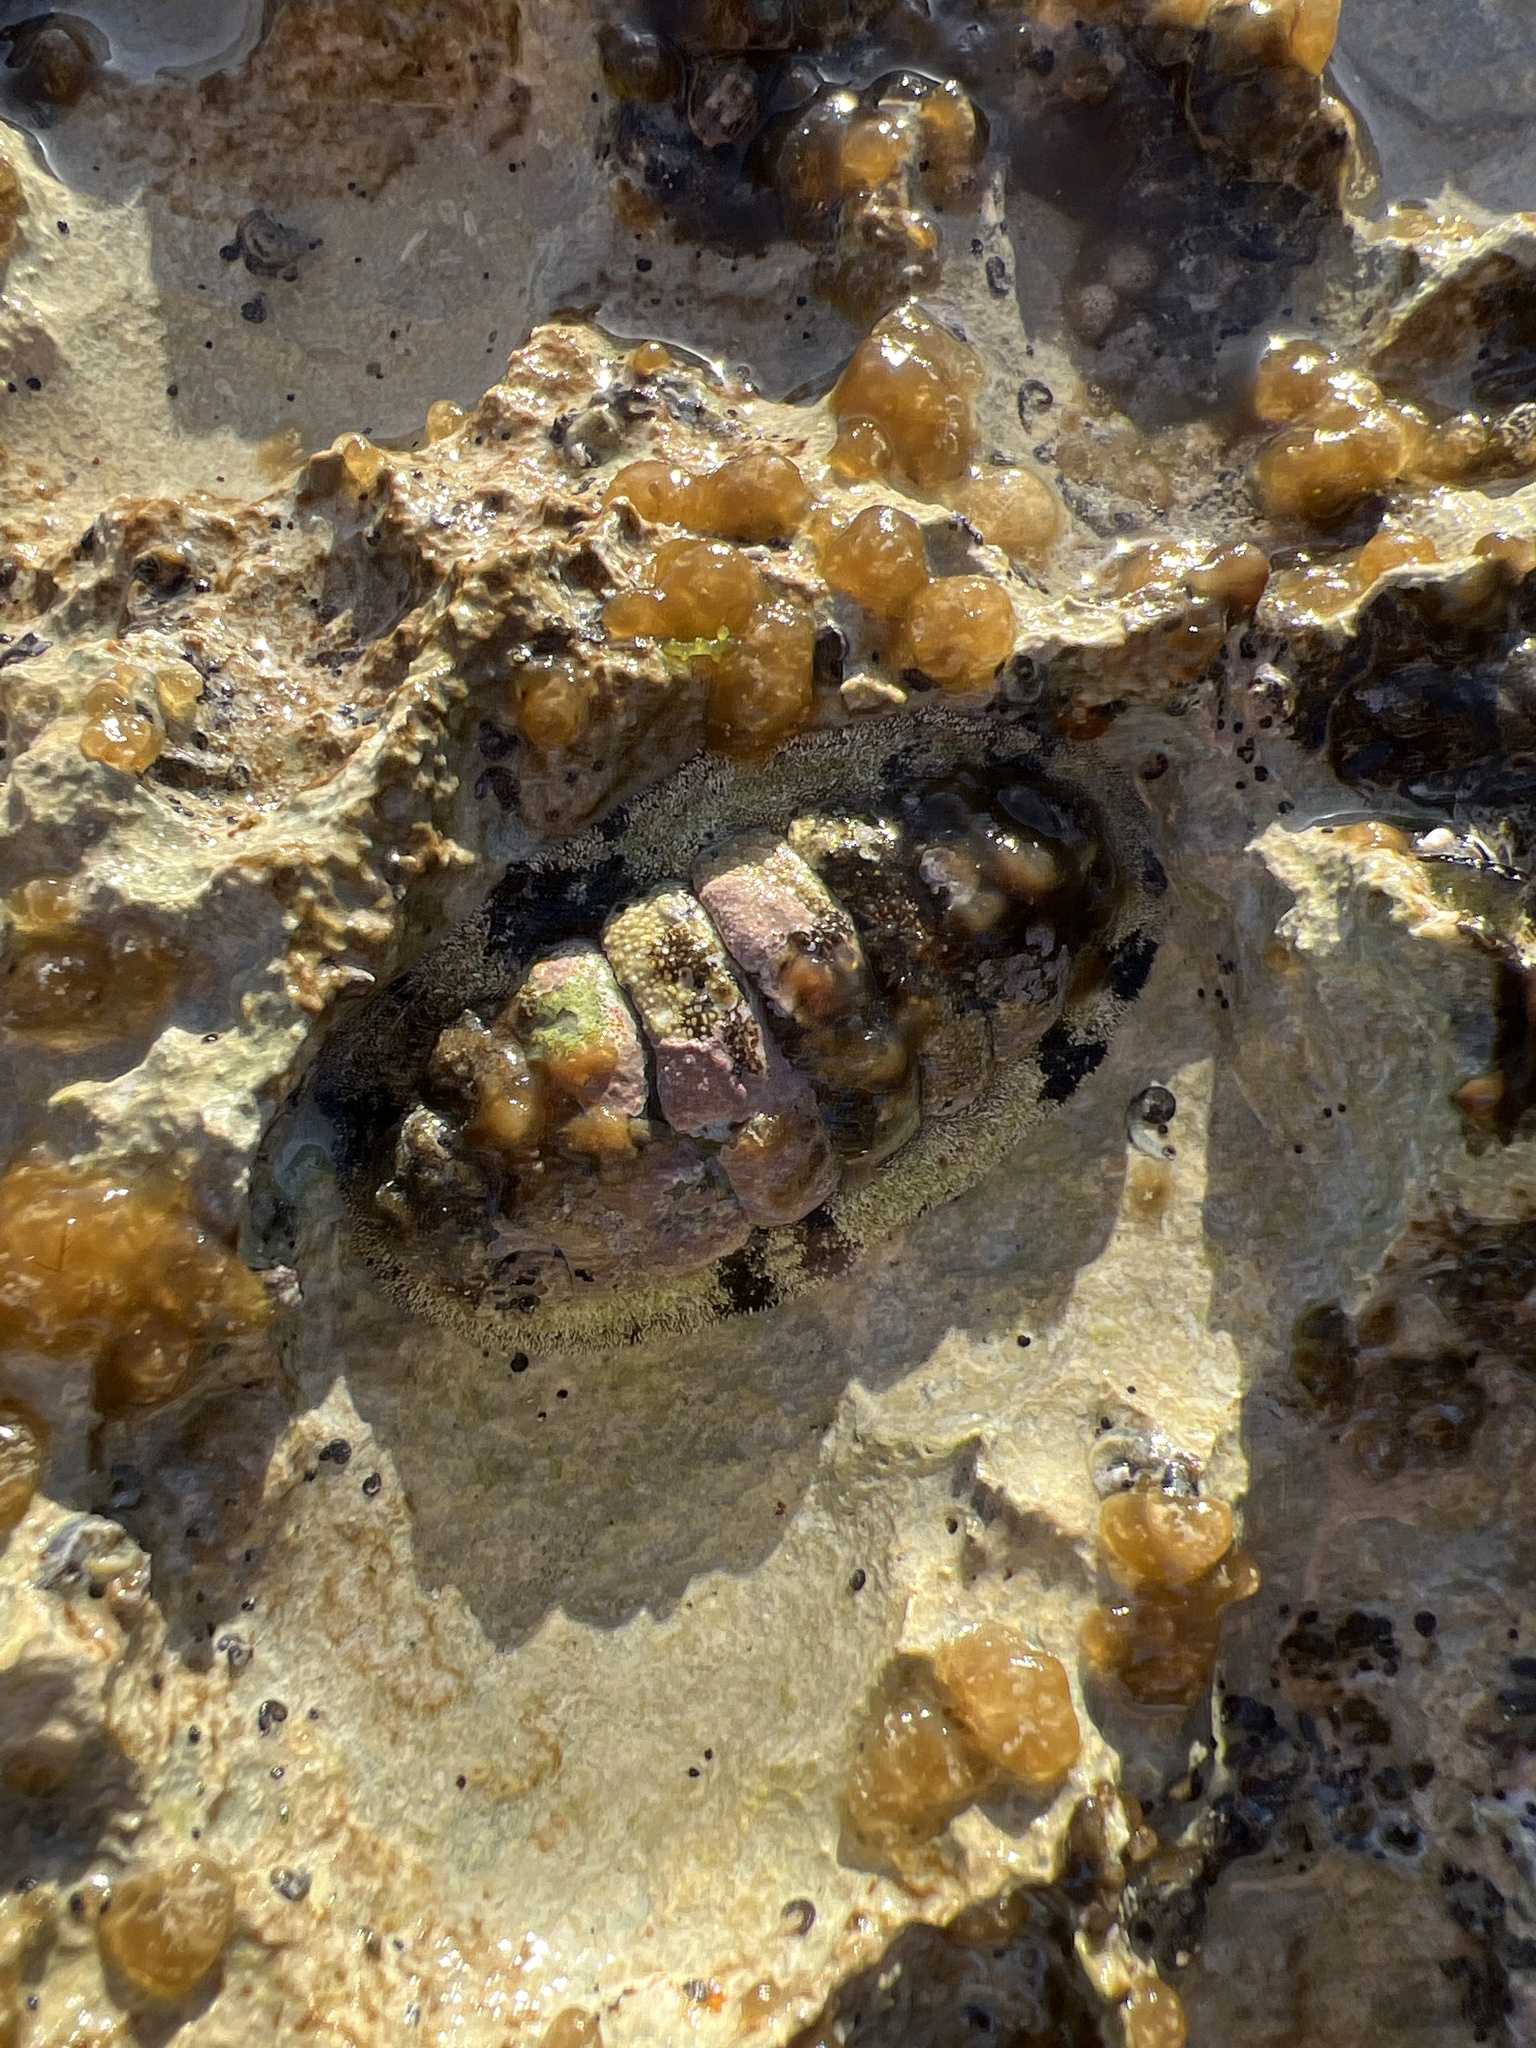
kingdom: Animalia
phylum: Mollusca
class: Polyplacophora
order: Chitonida
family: Chitonidae
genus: Acanthopleura
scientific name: Acanthopleura granulata
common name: West indian fuzzy chiton
